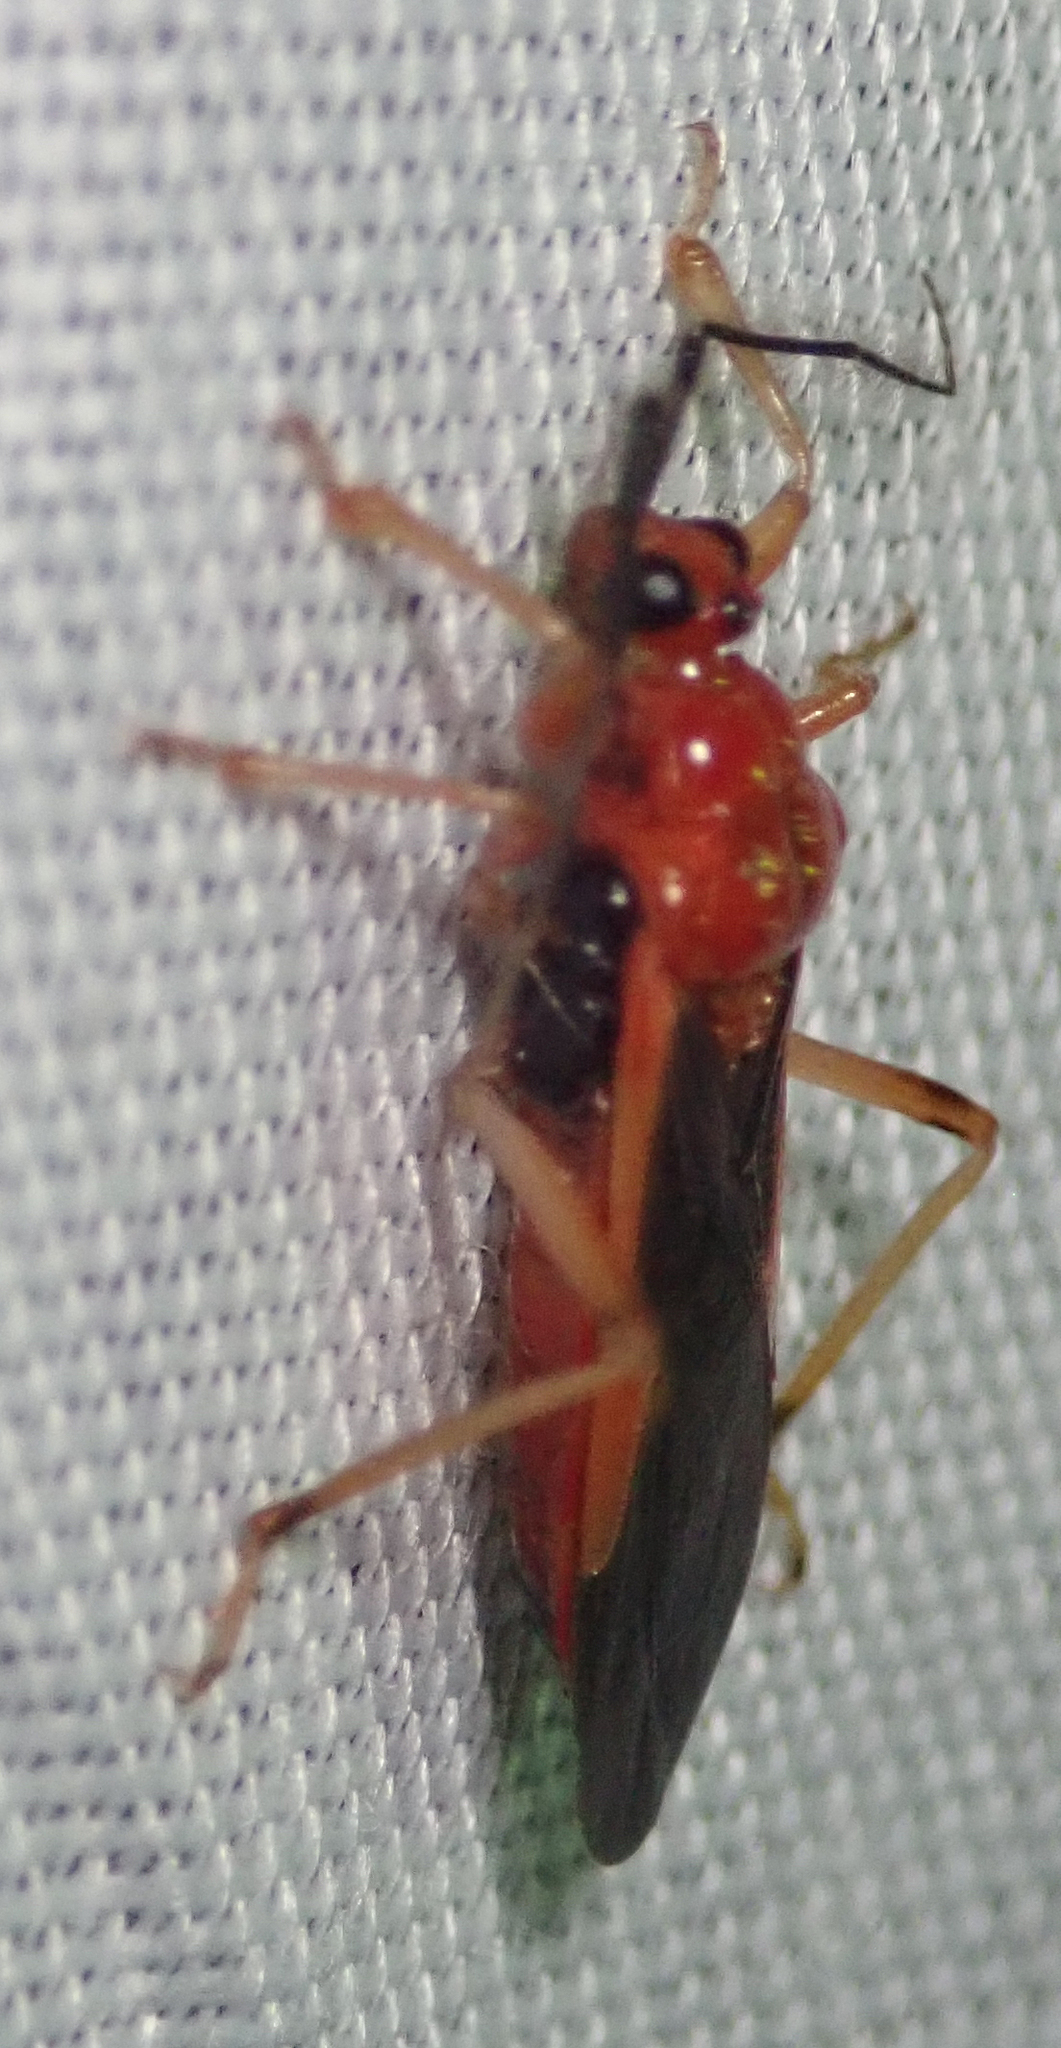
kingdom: Animalia
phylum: Arthropoda
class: Insecta
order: Hemiptera
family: Reduviidae
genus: Cleptria
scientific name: Cleptria oculata
